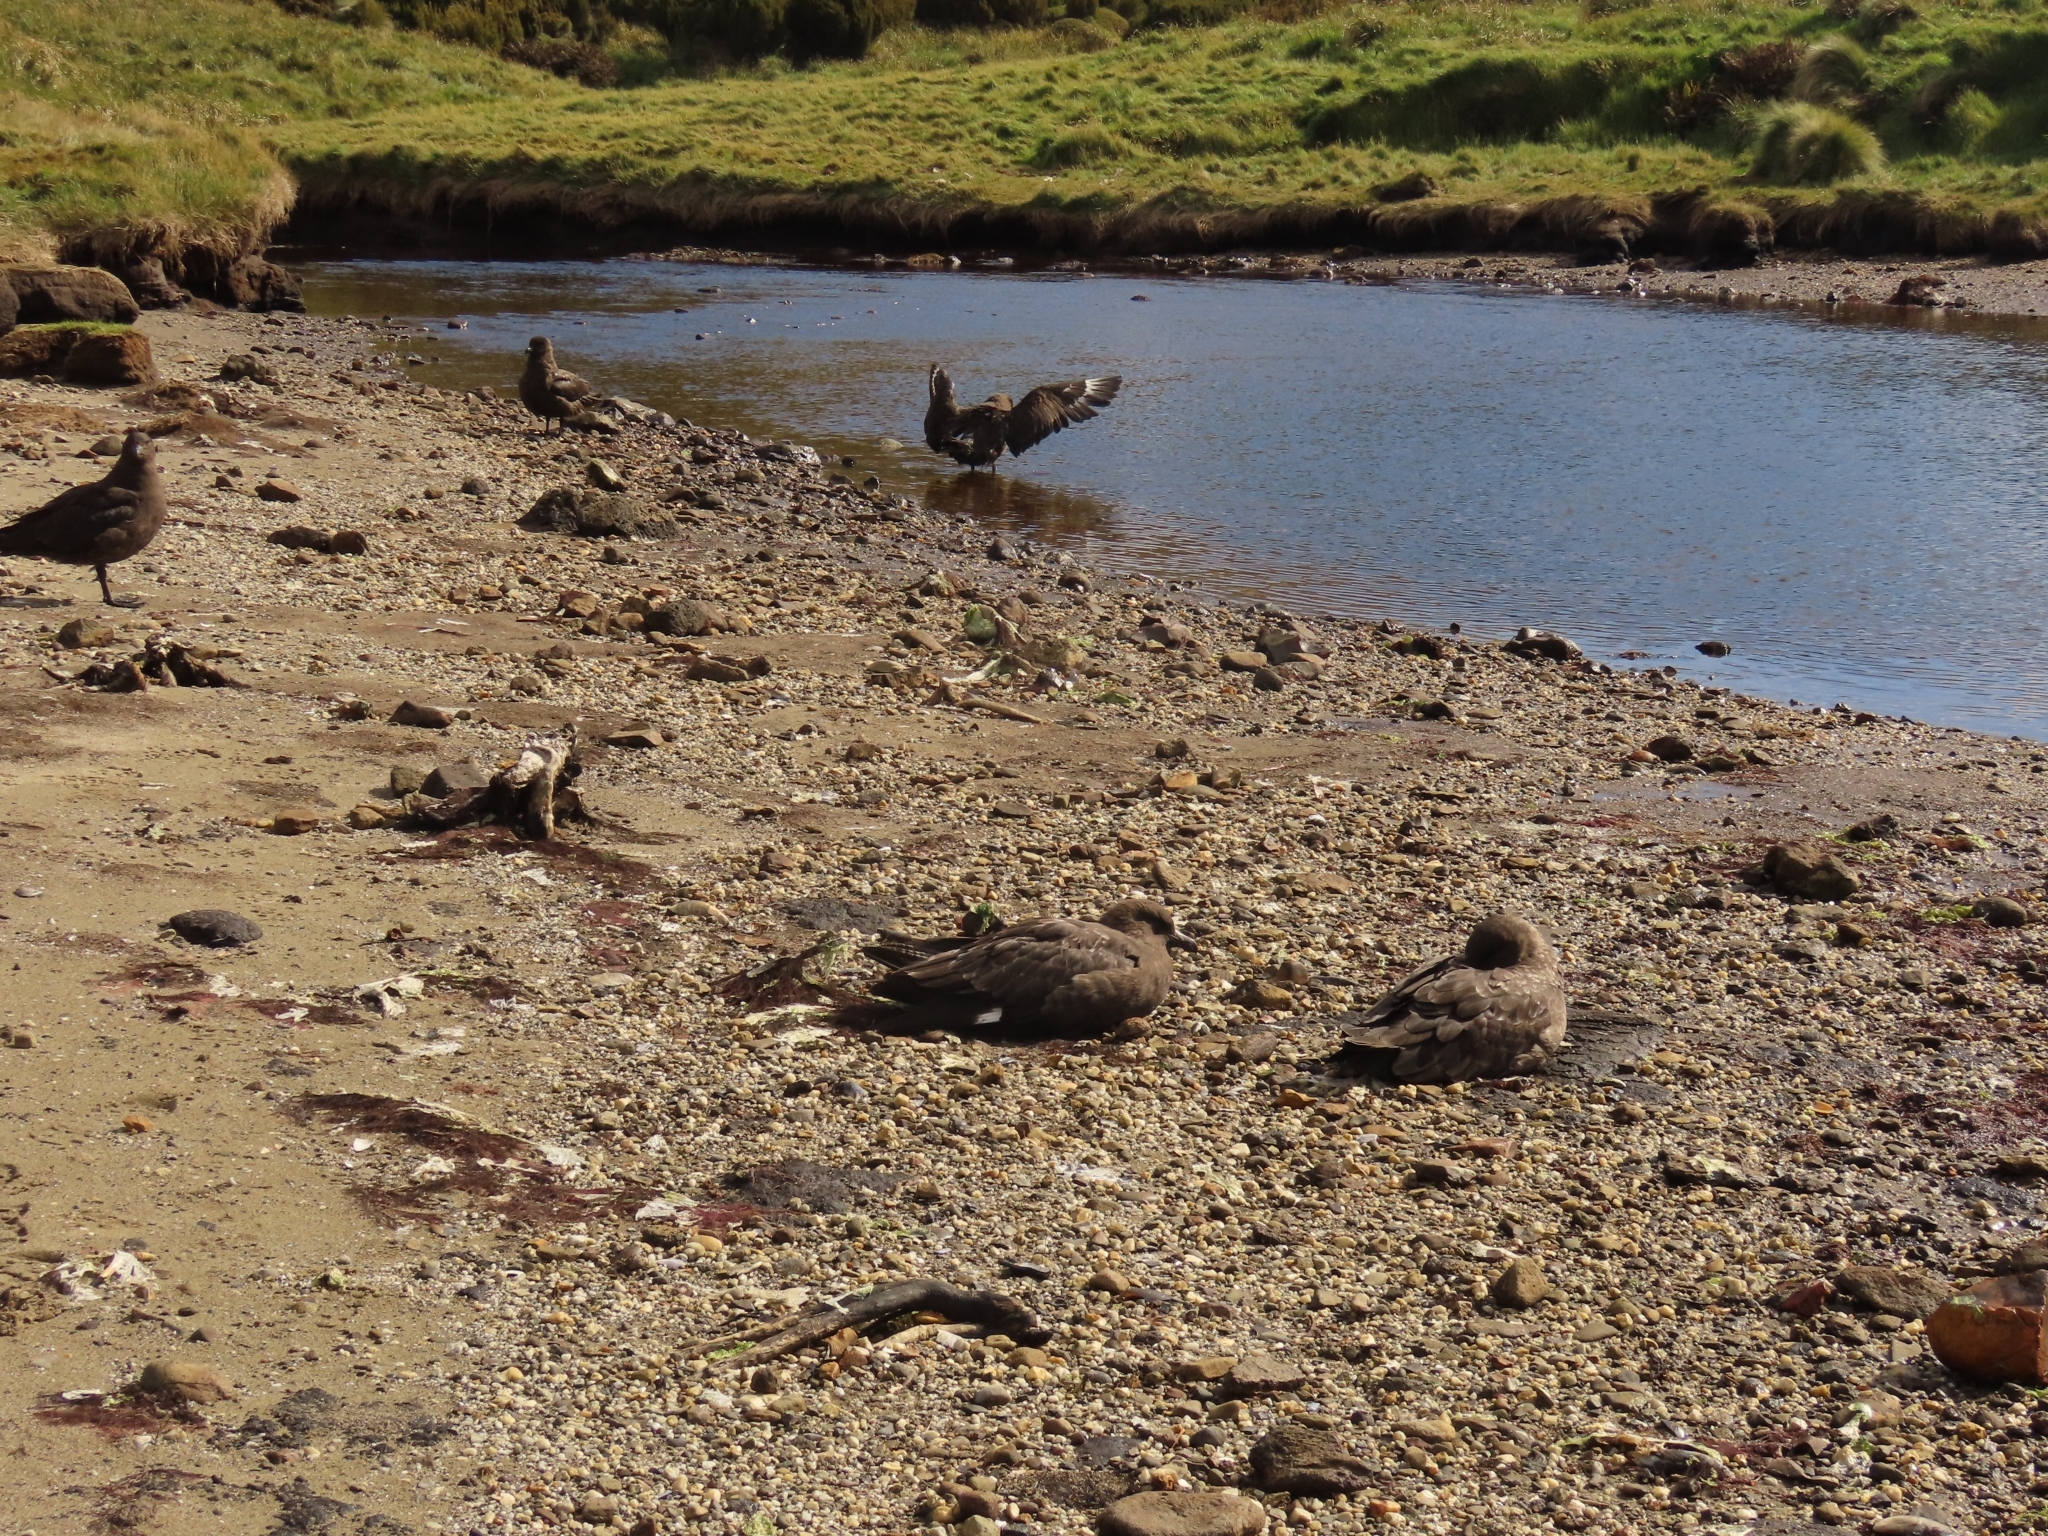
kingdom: Animalia
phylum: Chordata
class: Aves
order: Charadriiformes
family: Stercorariidae
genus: Stercorarius
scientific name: Stercorarius antarcticus
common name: Brown skua
